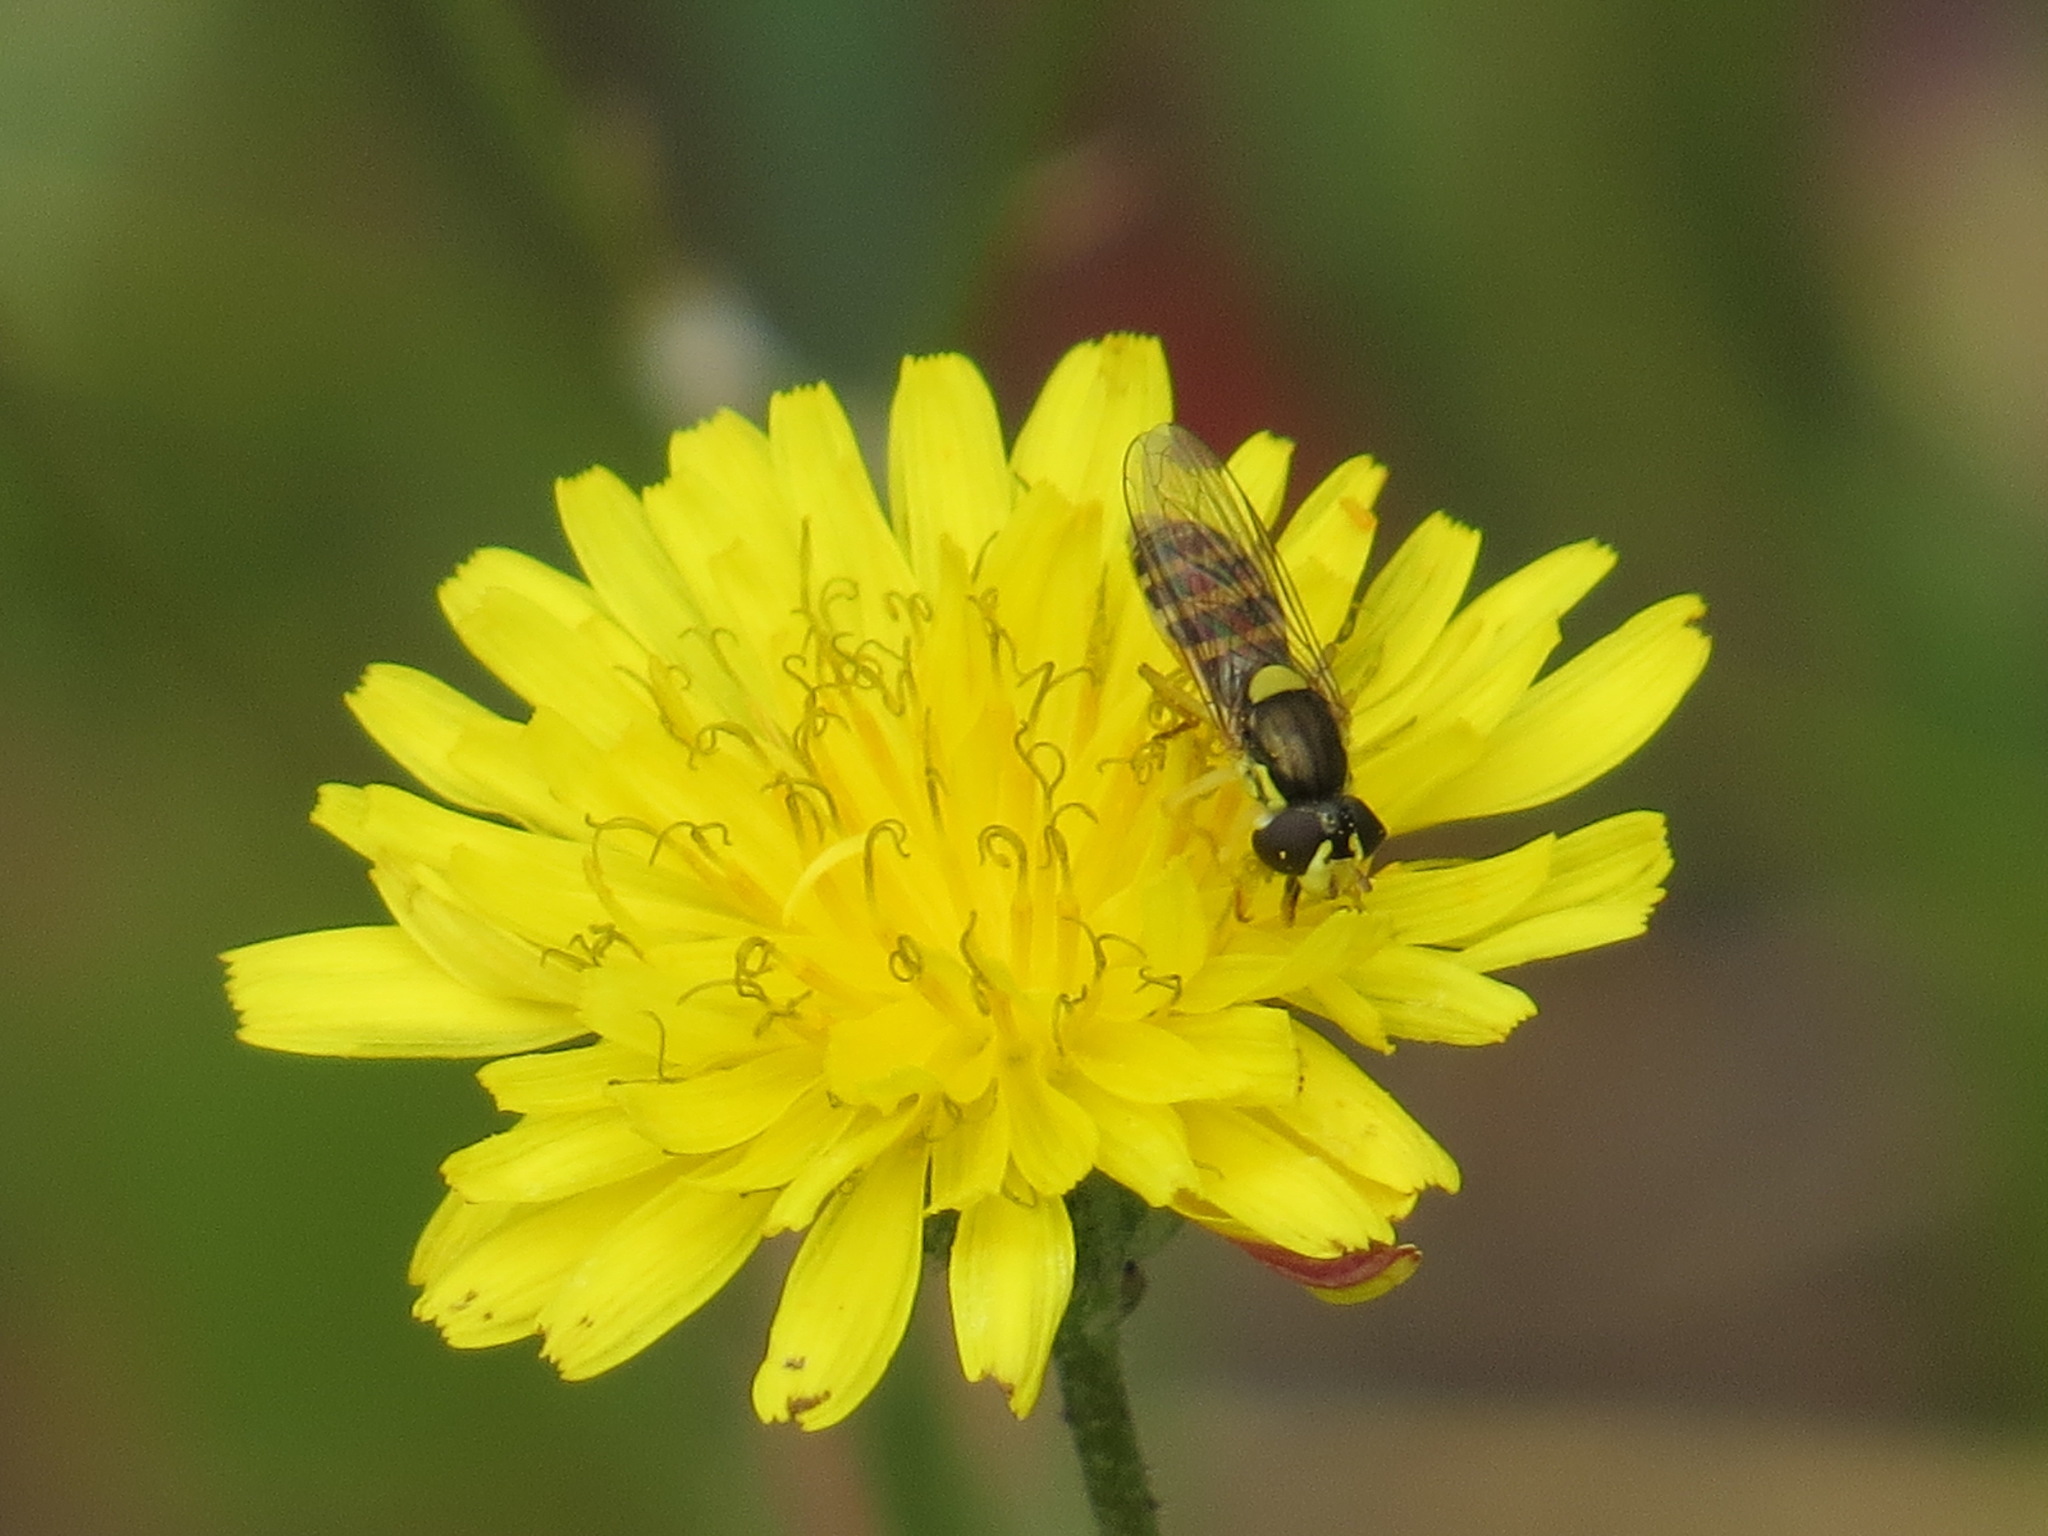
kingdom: Animalia
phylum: Arthropoda
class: Insecta
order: Diptera
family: Syrphidae
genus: Sphaerophoria
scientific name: Sphaerophoria sulphuripes
